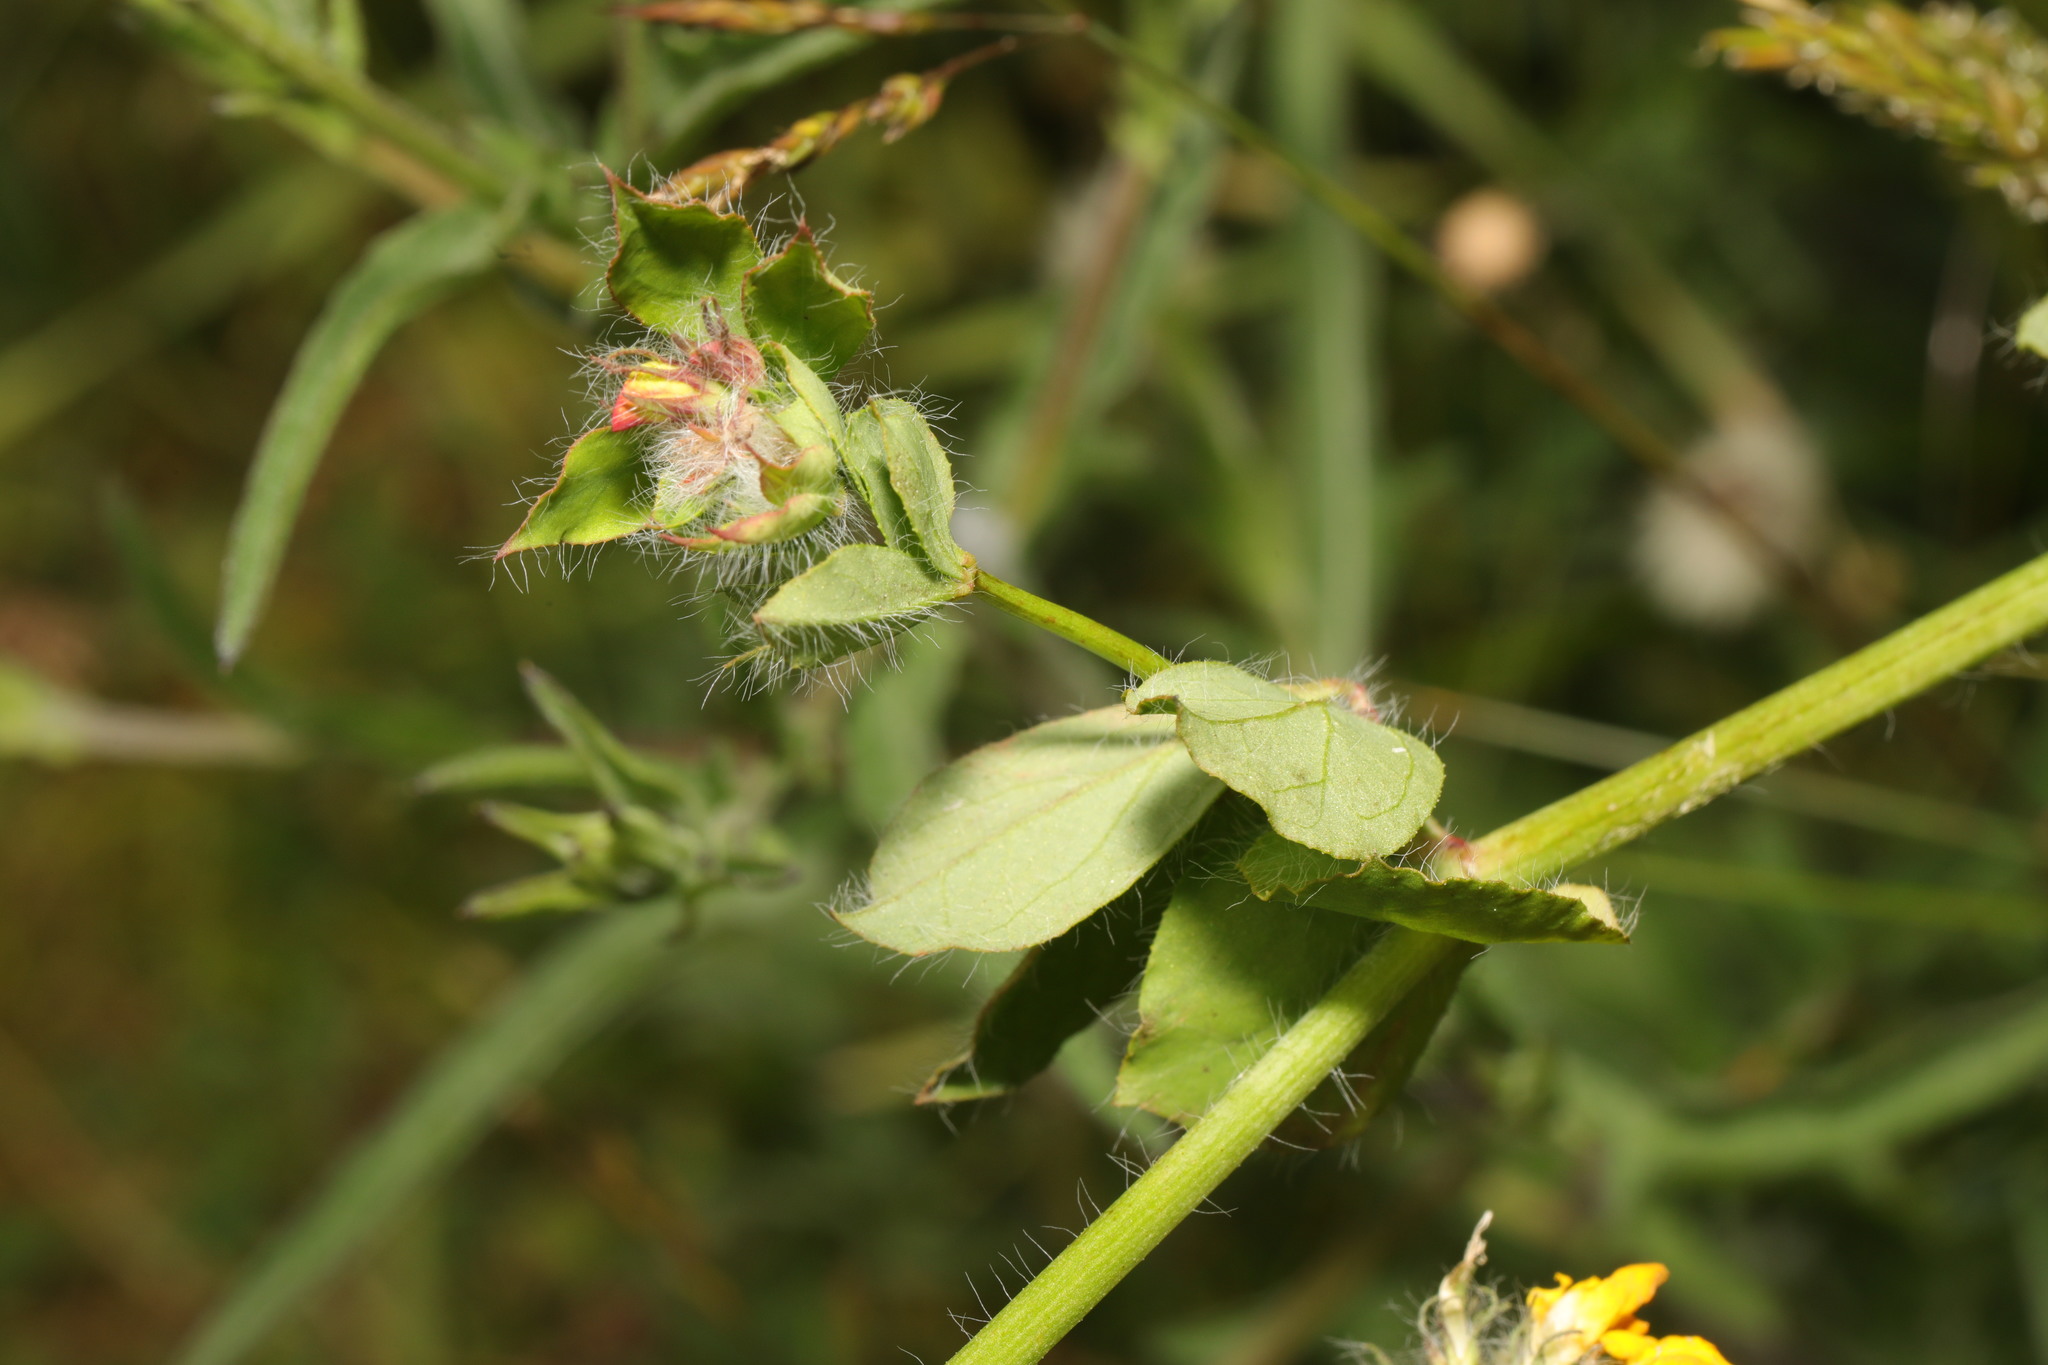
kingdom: Plantae
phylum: Tracheophyta
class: Magnoliopsida
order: Fabales
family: Fabaceae
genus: Lotus
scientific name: Lotus pedunculatus
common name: Greater birdsfoot-trefoil
